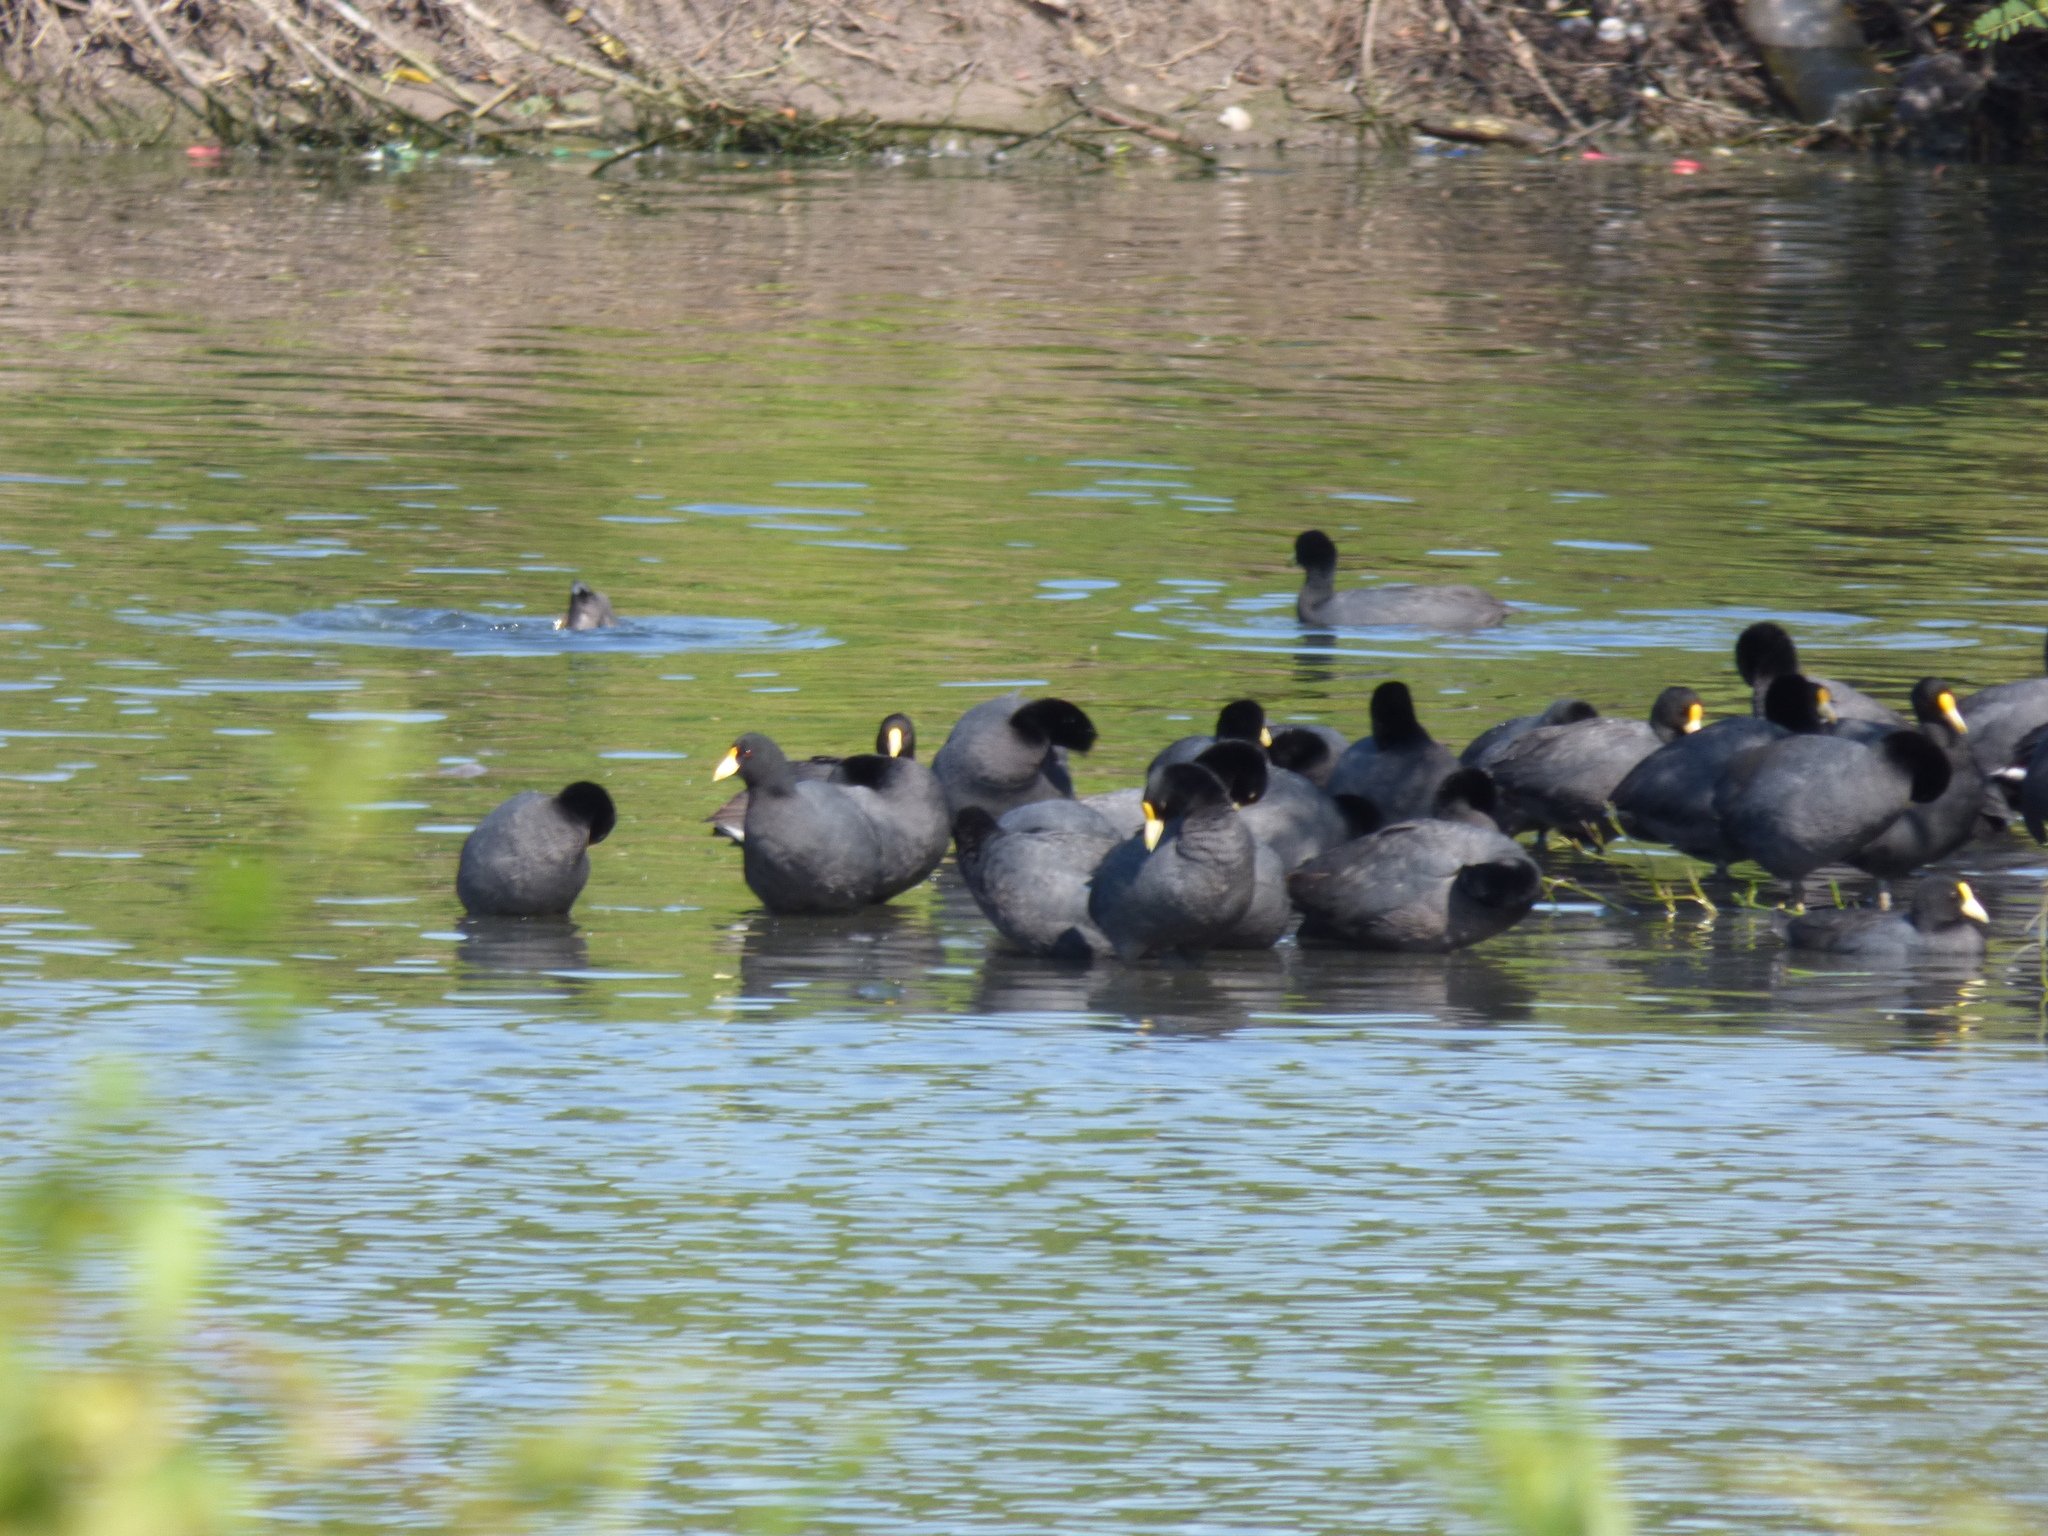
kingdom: Animalia
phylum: Chordata
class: Aves
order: Gruiformes
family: Rallidae
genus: Fulica
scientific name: Fulica leucoptera
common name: White-winged coot
